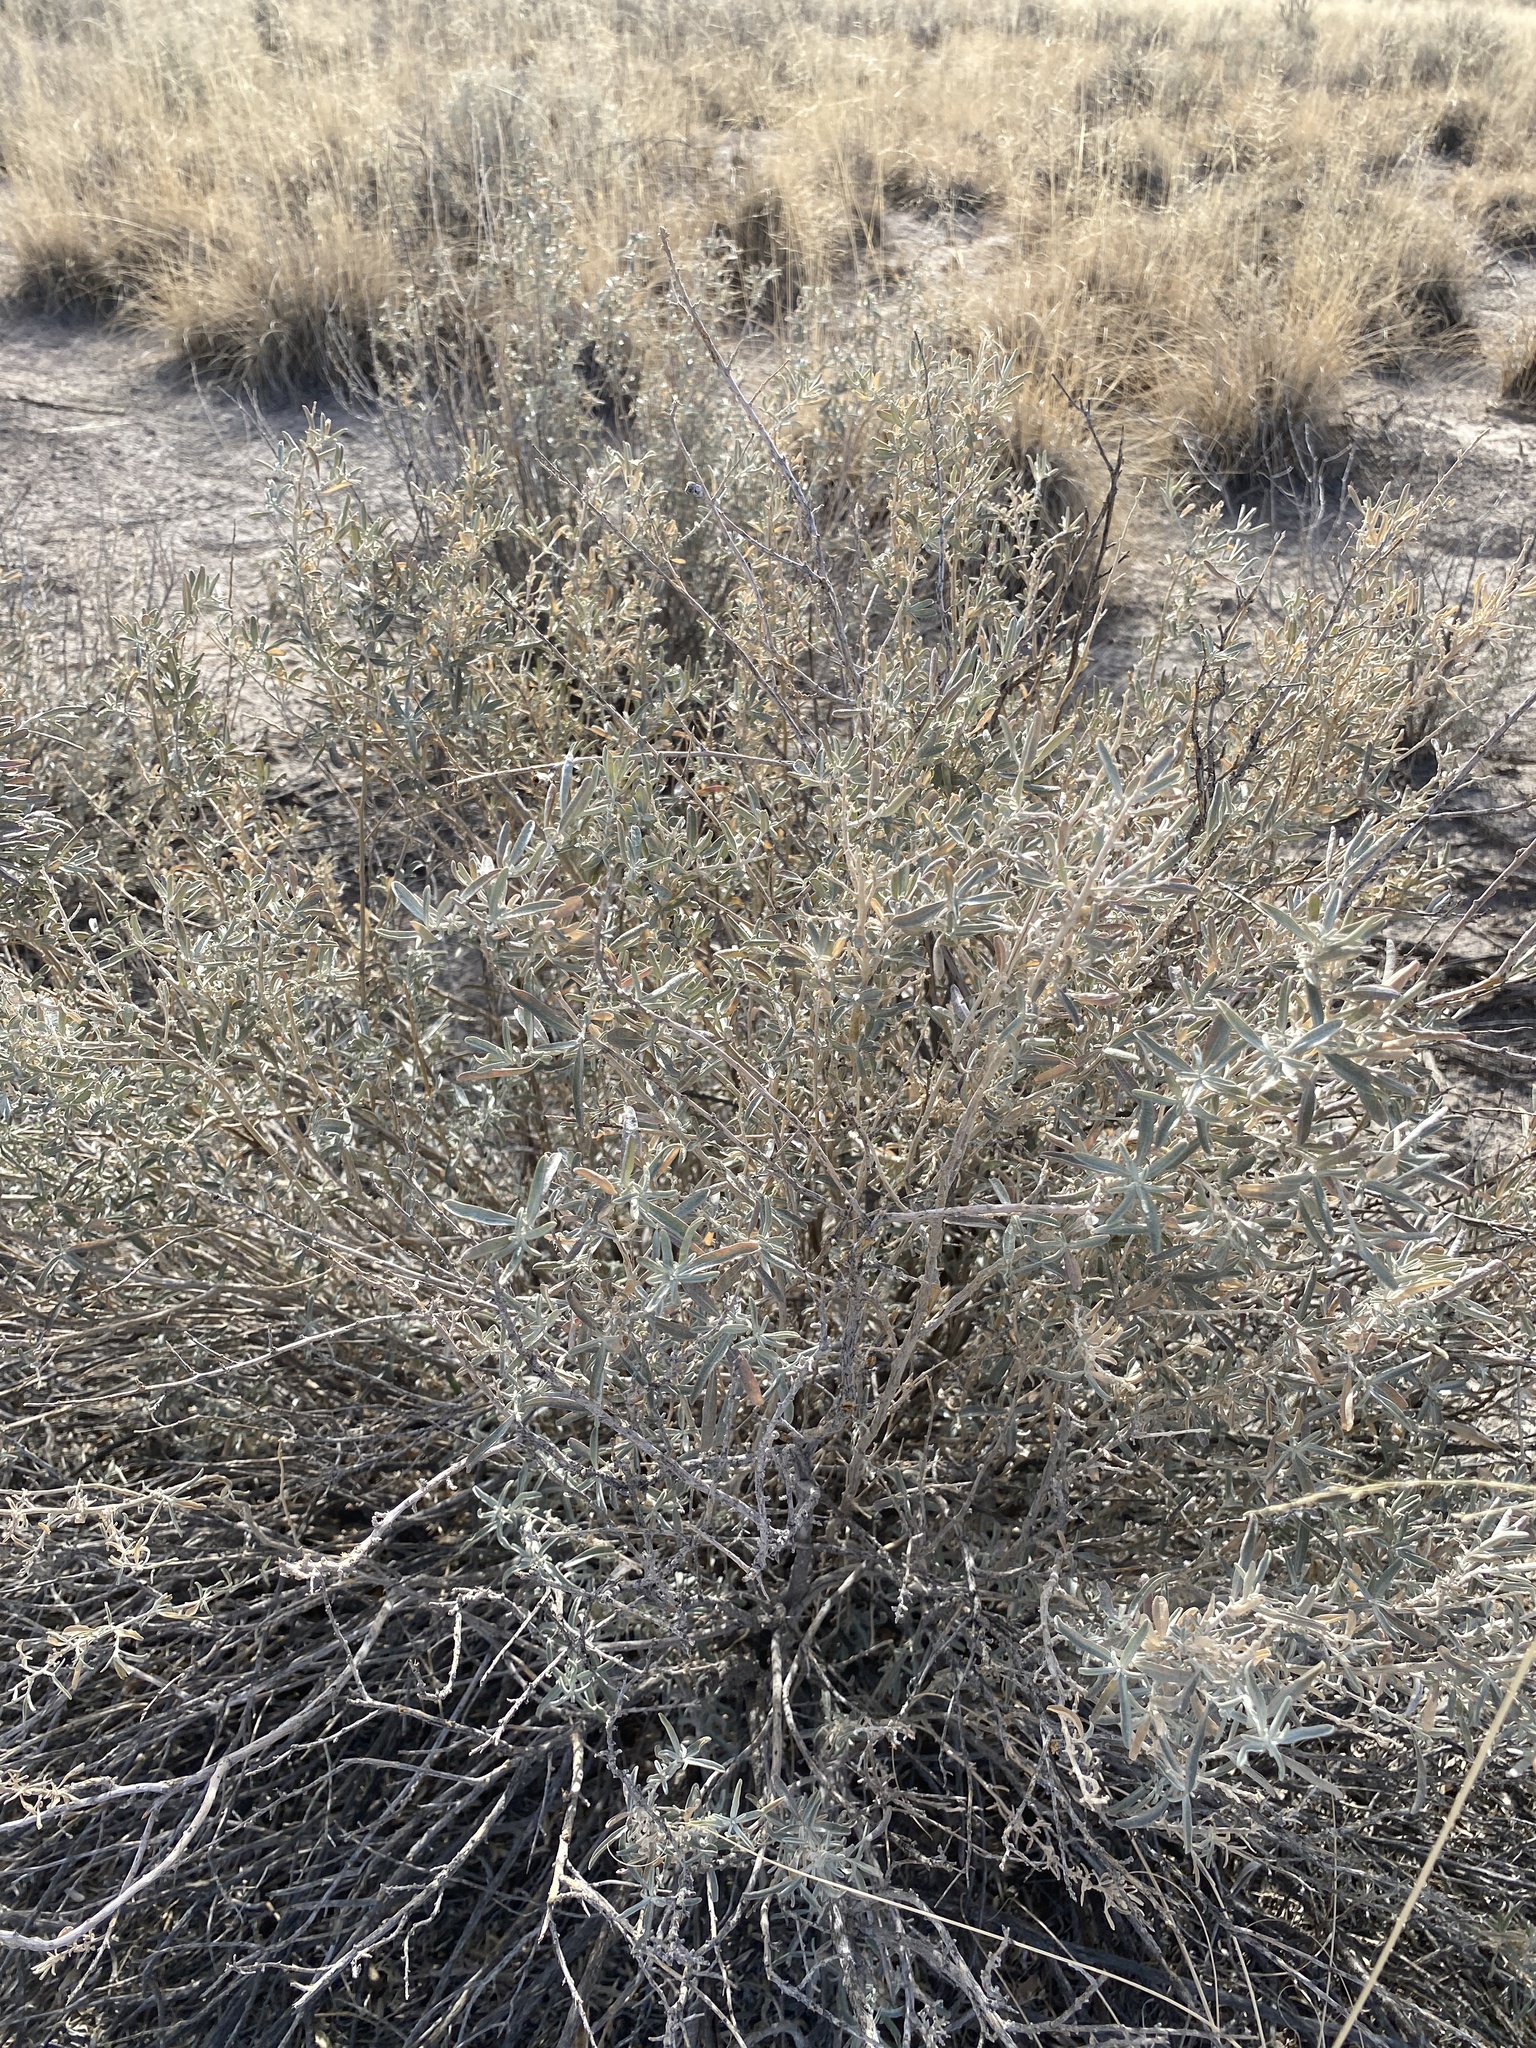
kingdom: Plantae
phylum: Tracheophyta
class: Magnoliopsida
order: Caryophyllales
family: Amaranthaceae
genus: Atriplex
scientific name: Atriplex canescens
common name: Four-wing saltbush
